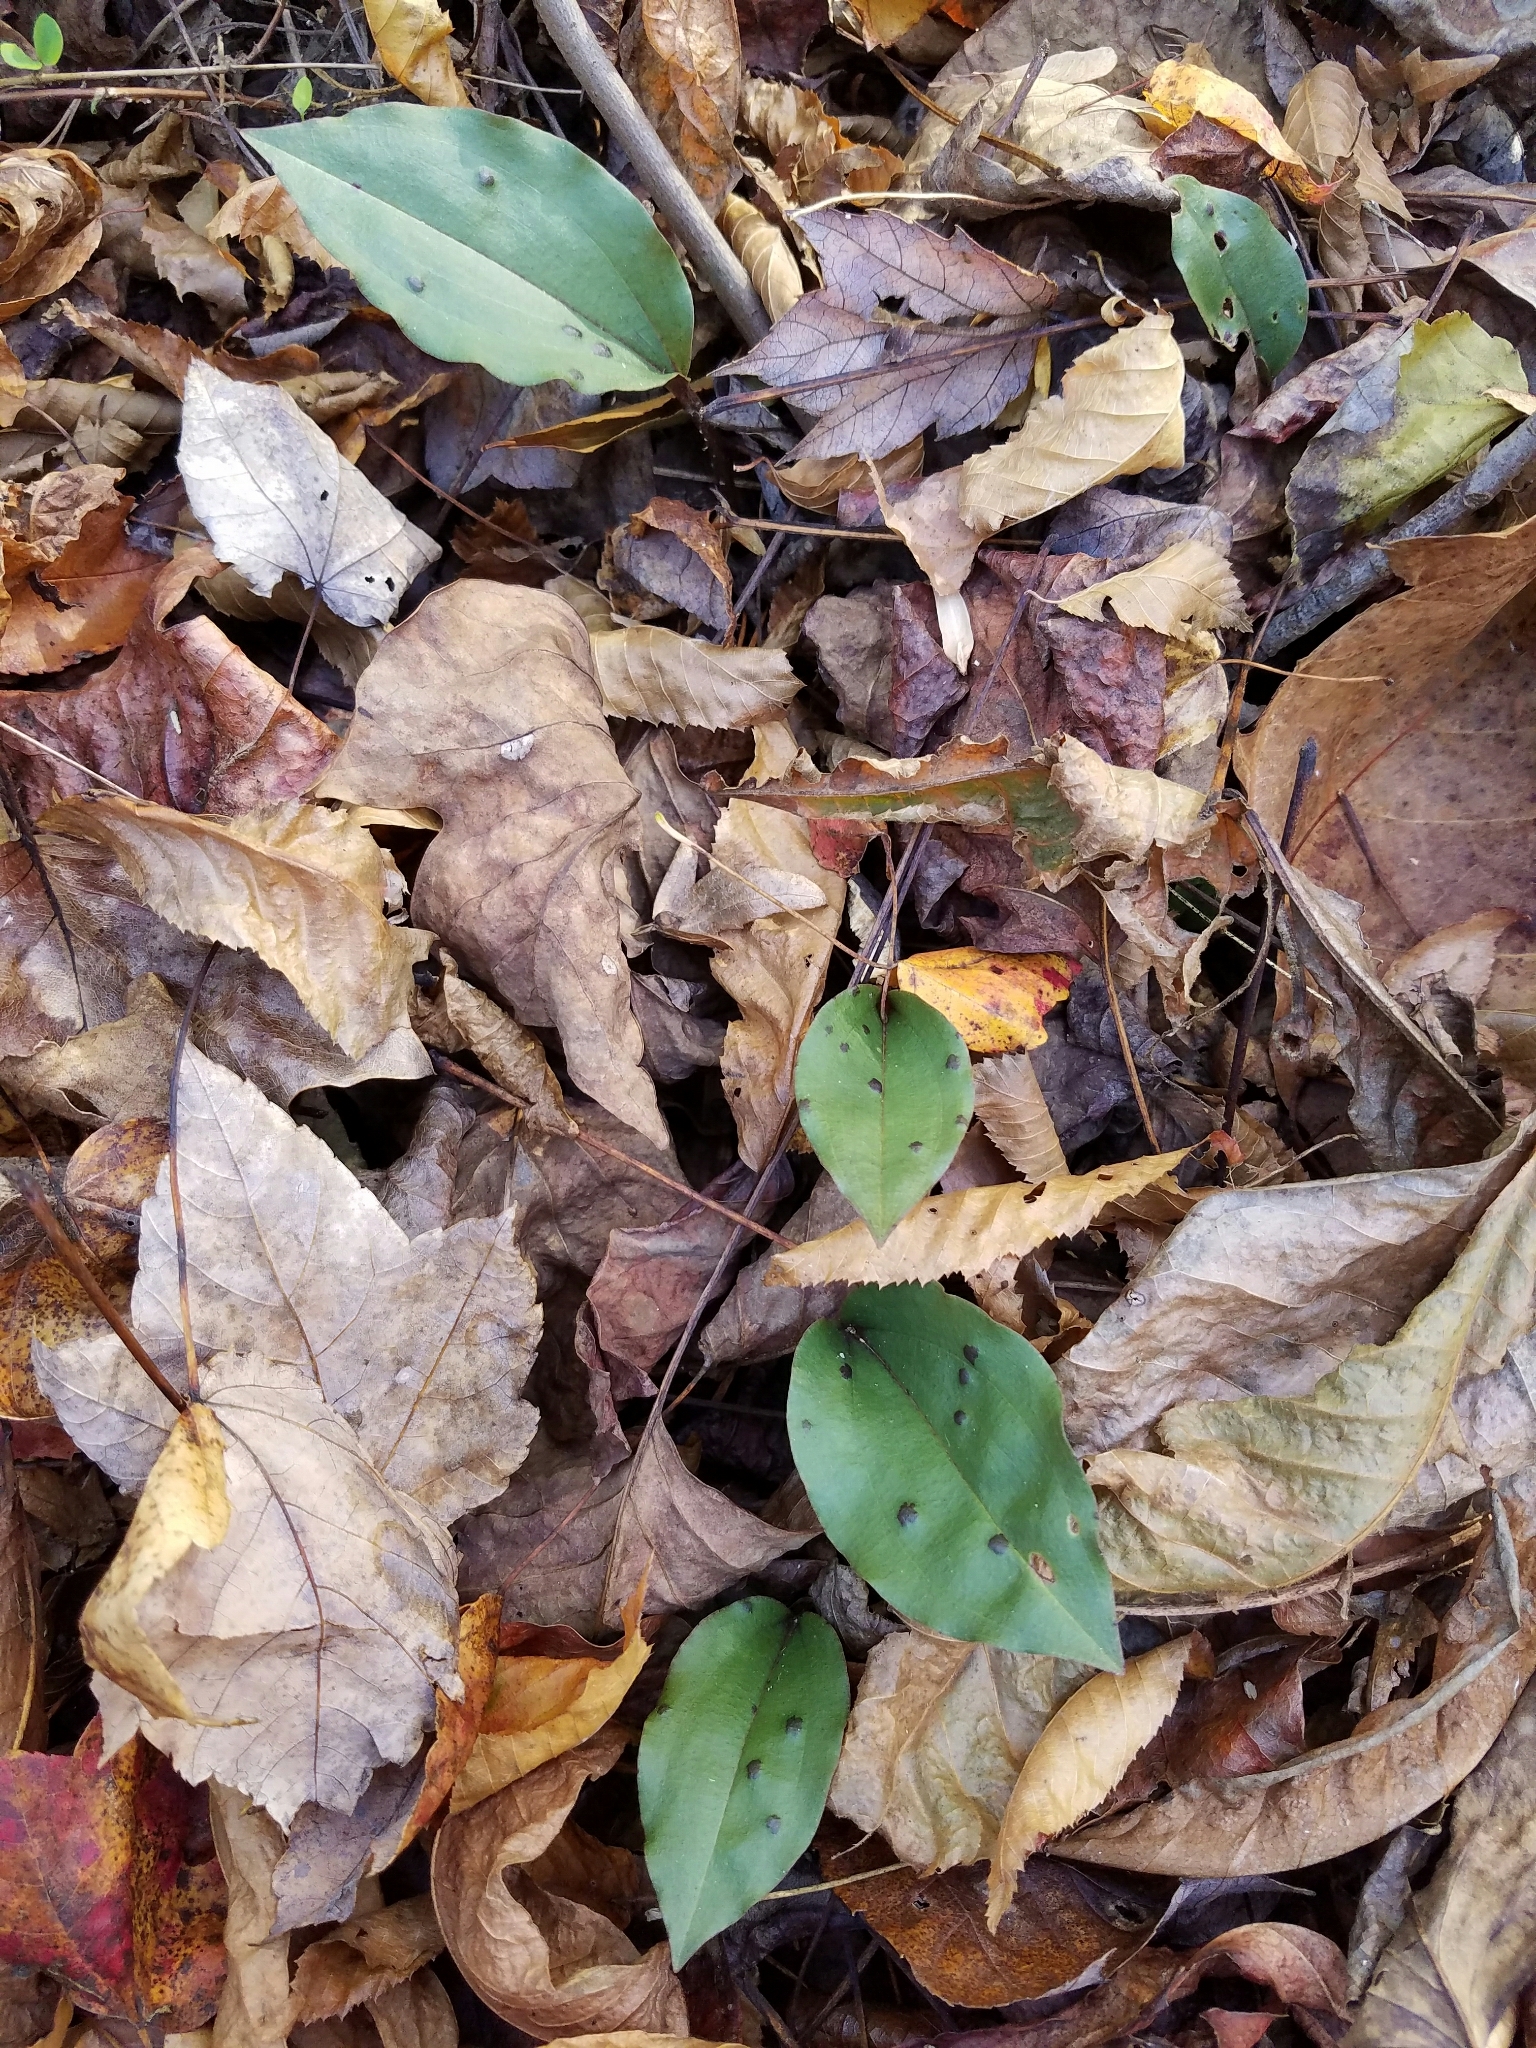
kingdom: Plantae
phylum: Tracheophyta
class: Liliopsida
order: Asparagales
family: Orchidaceae
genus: Tipularia
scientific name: Tipularia discolor
